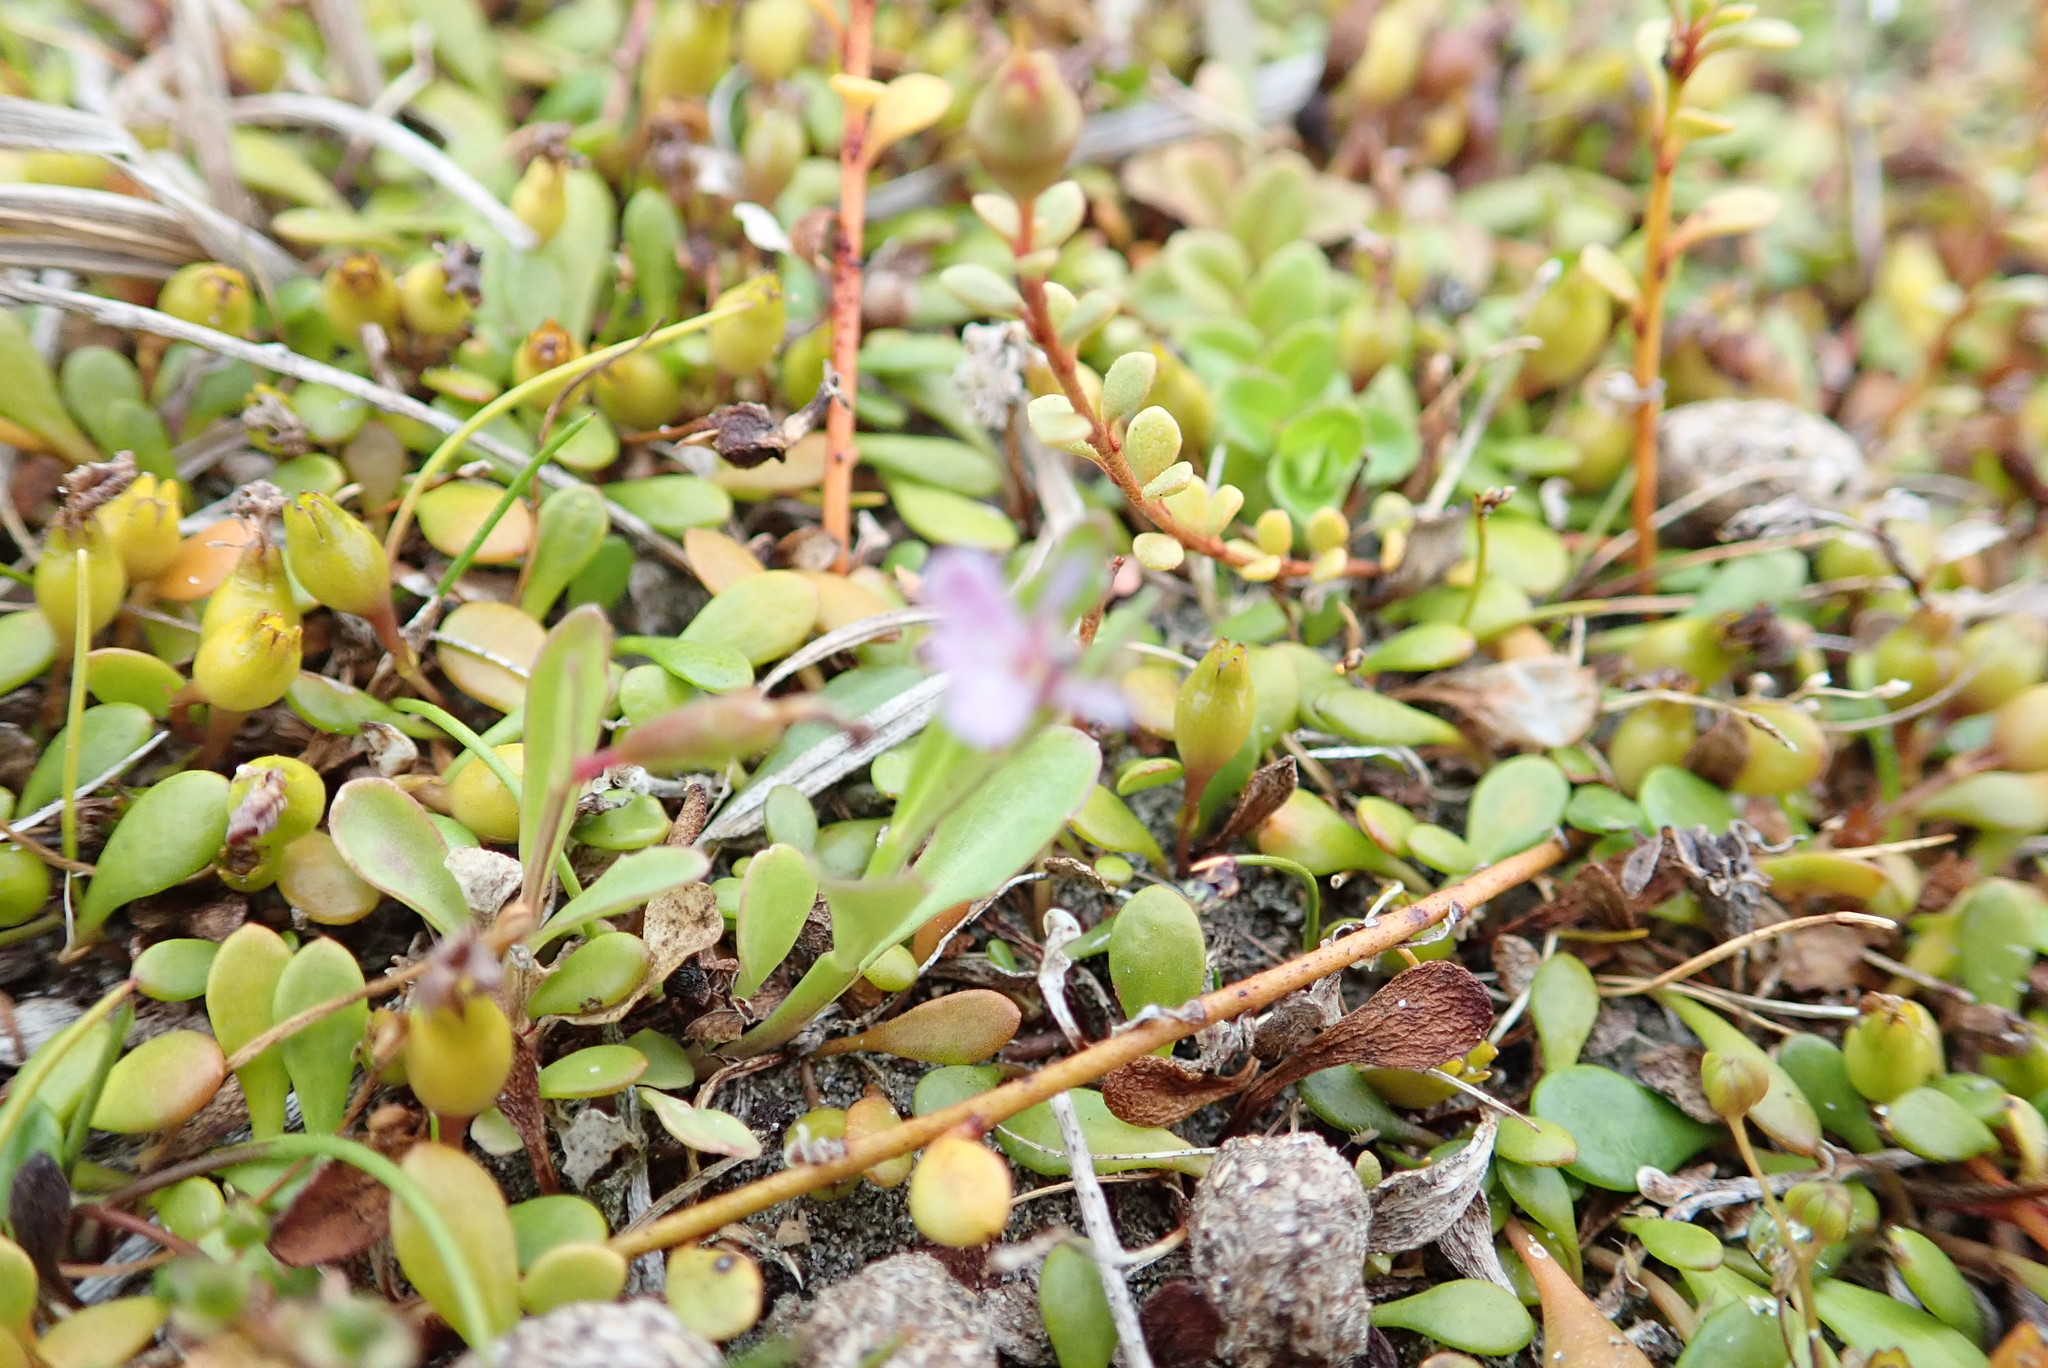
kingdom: Plantae
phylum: Tracheophyta
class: Magnoliopsida
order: Asterales
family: Campanulaceae
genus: Lobelia
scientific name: Lobelia anceps
